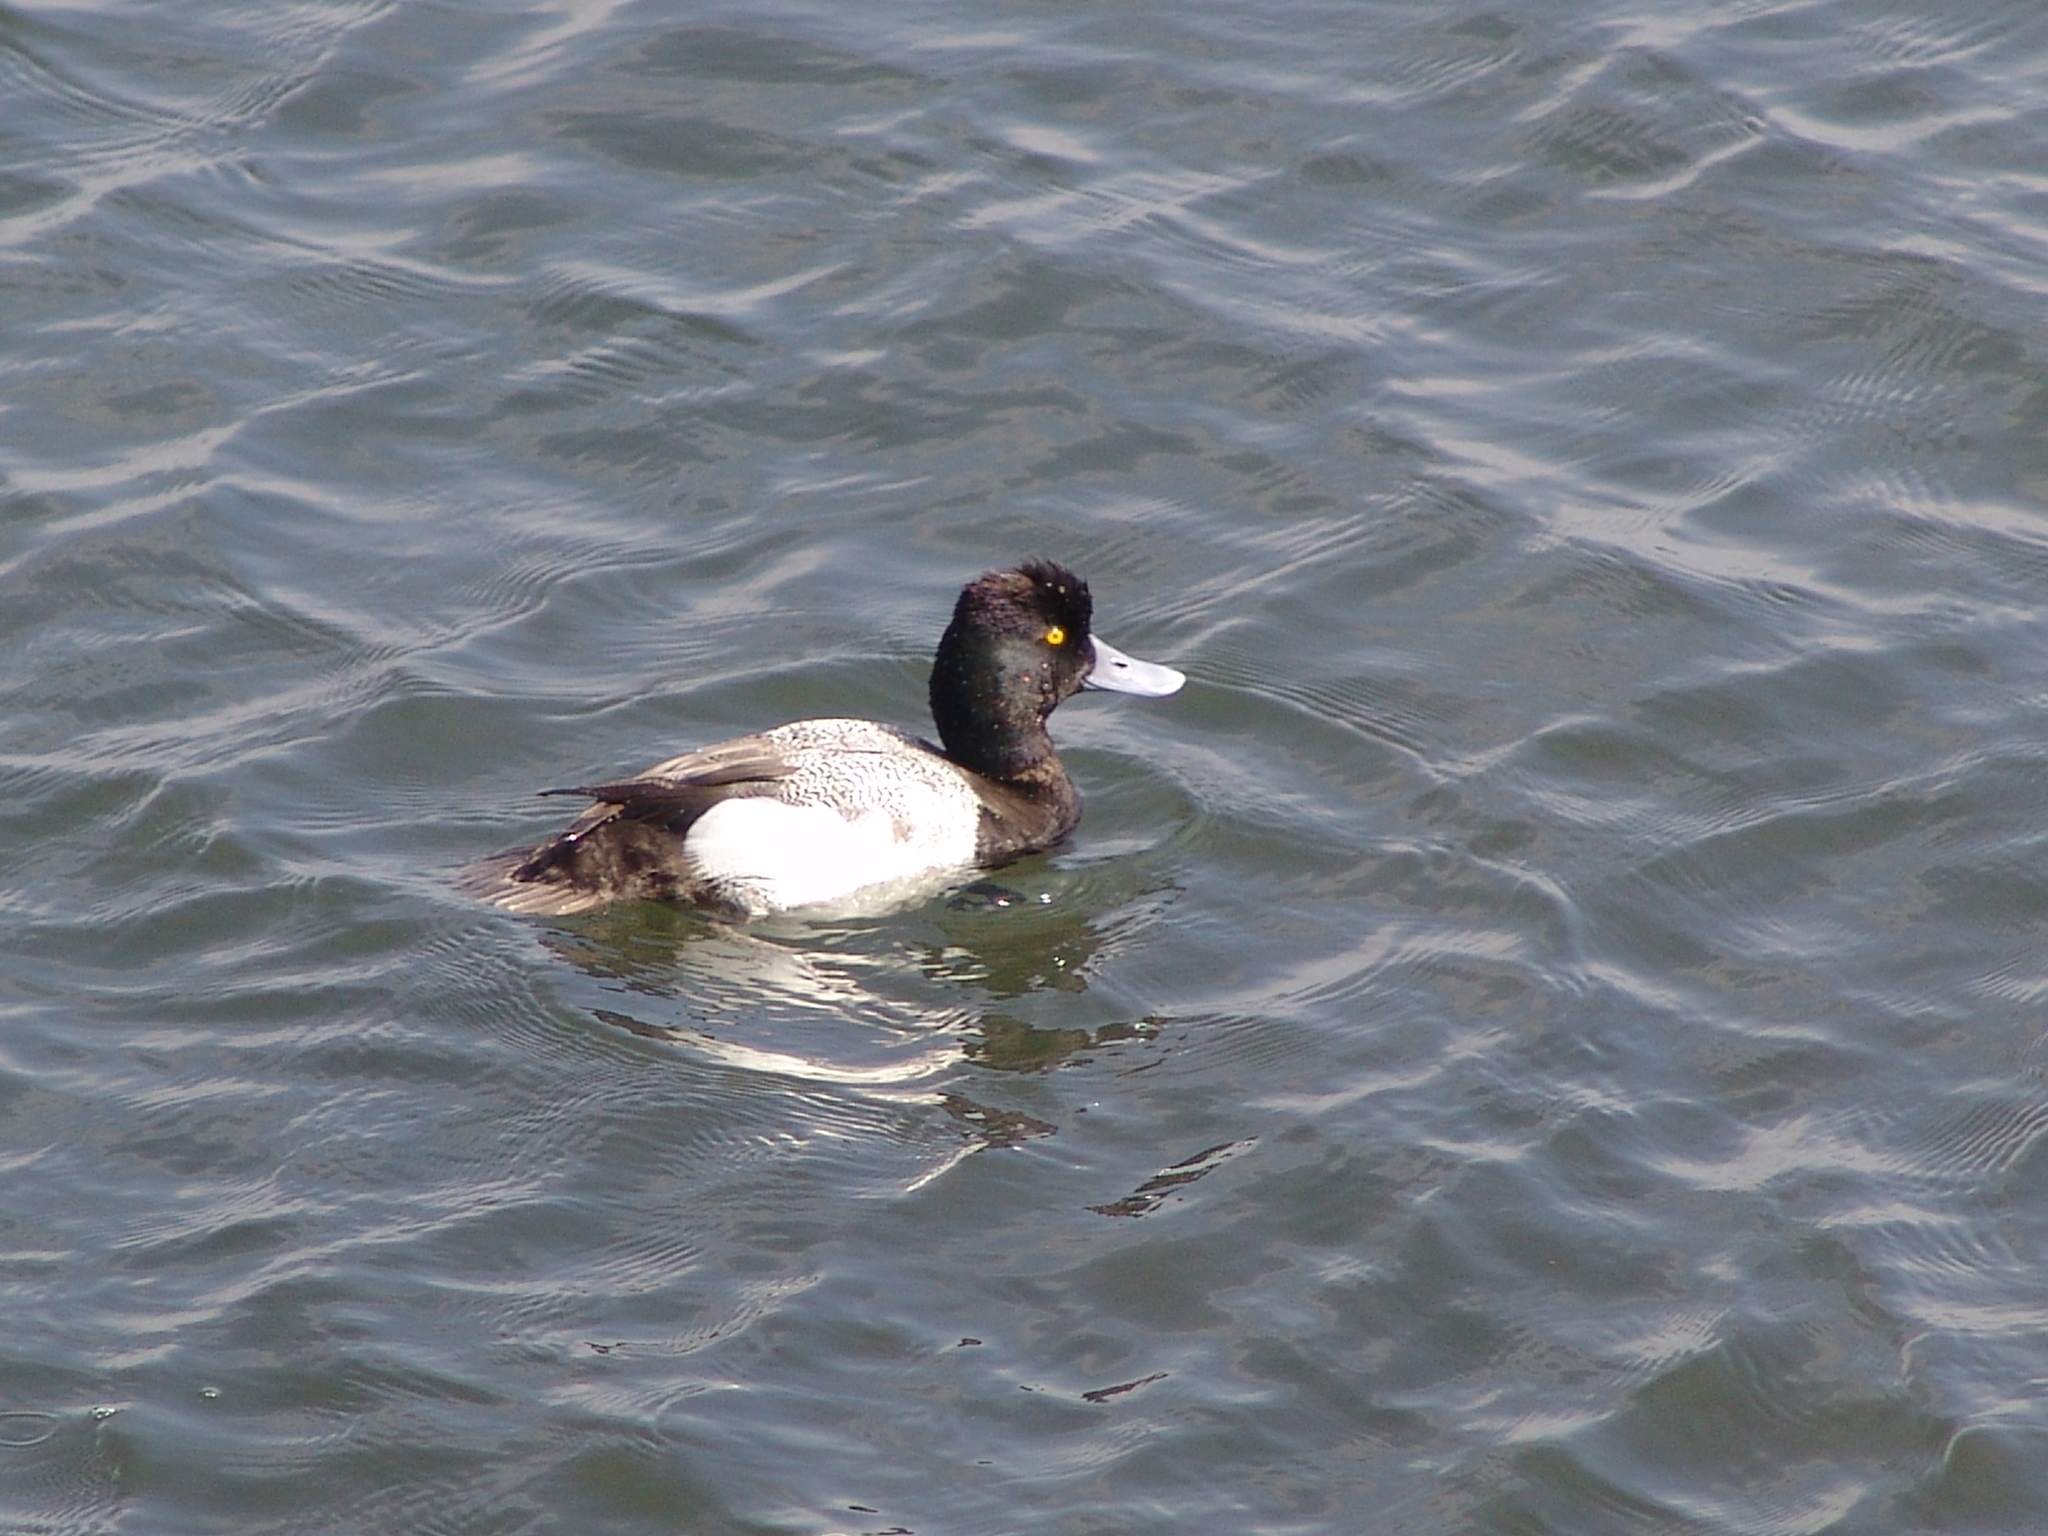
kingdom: Animalia
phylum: Chordata
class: Aves
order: Anseriformes
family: Anatidae
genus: Aythya
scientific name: Aythya affinis
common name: Lesser scaup
